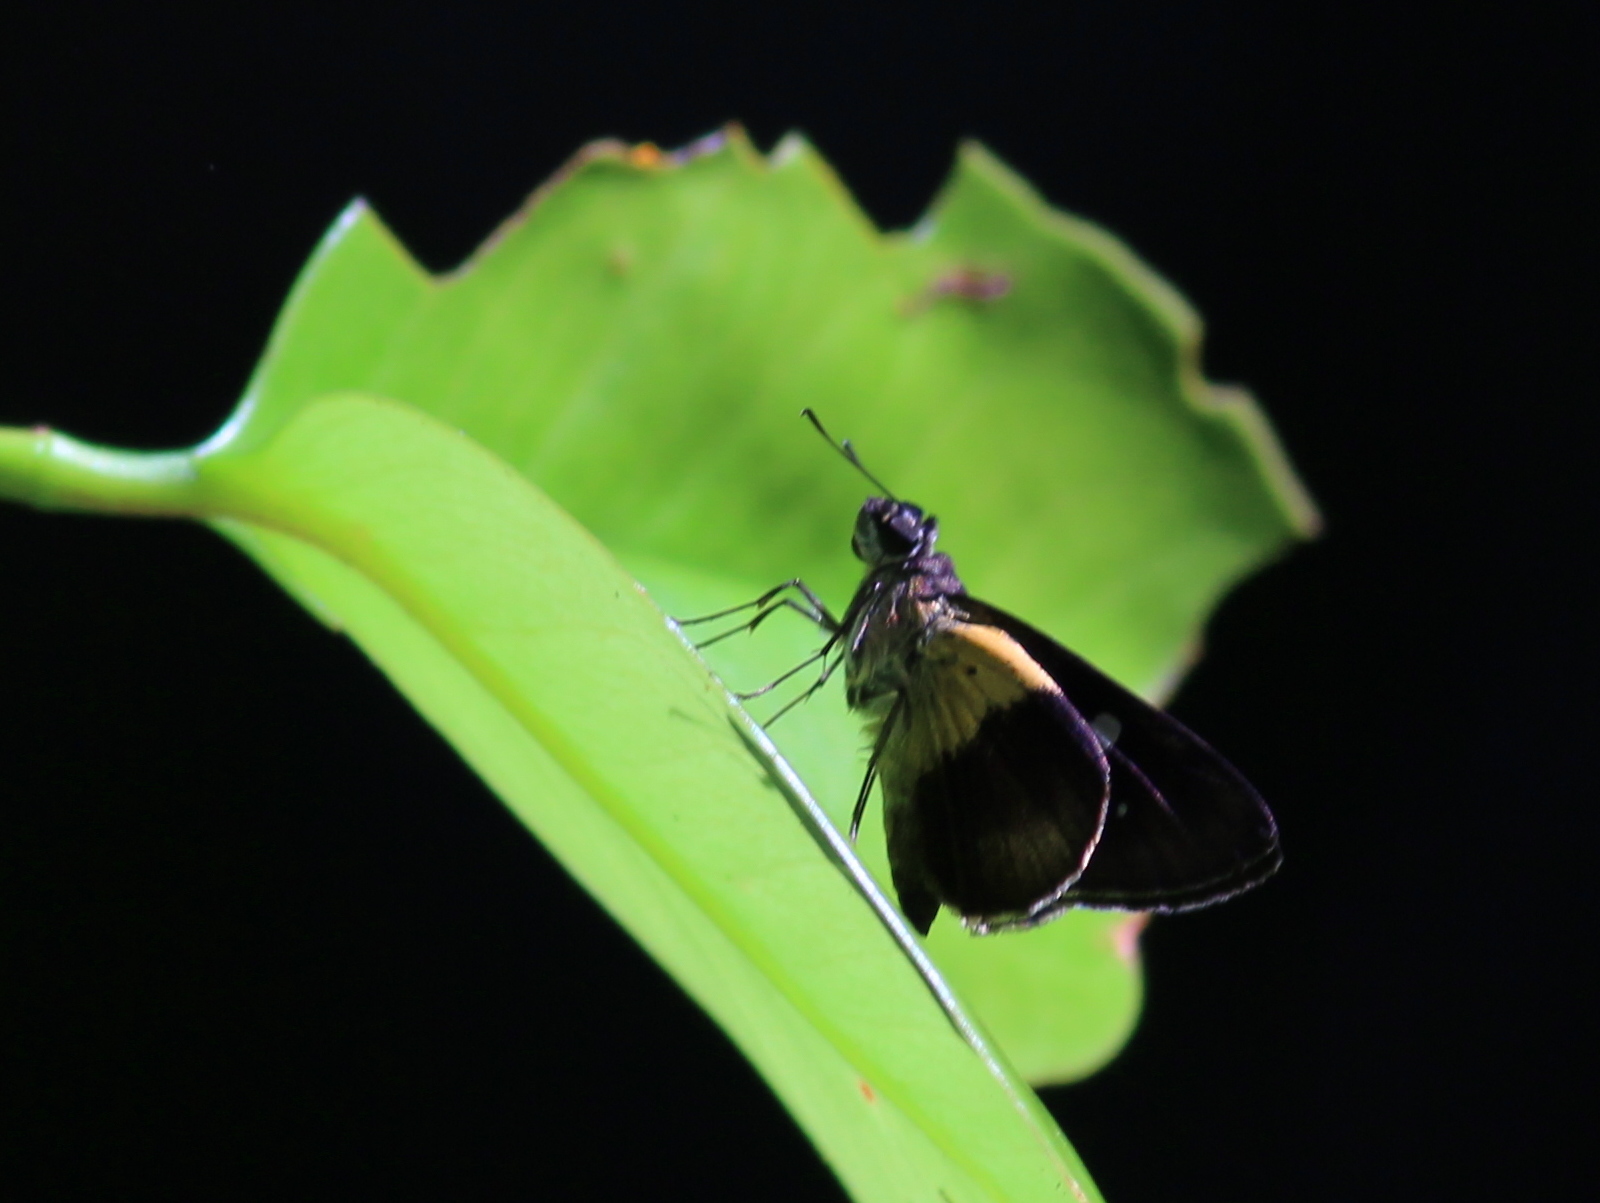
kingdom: Animalia
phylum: Arthropoda
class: Insecta
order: Lepidoptera
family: Hesperiidae
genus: Quedara
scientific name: Quedara basiflava
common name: Golden flitter
